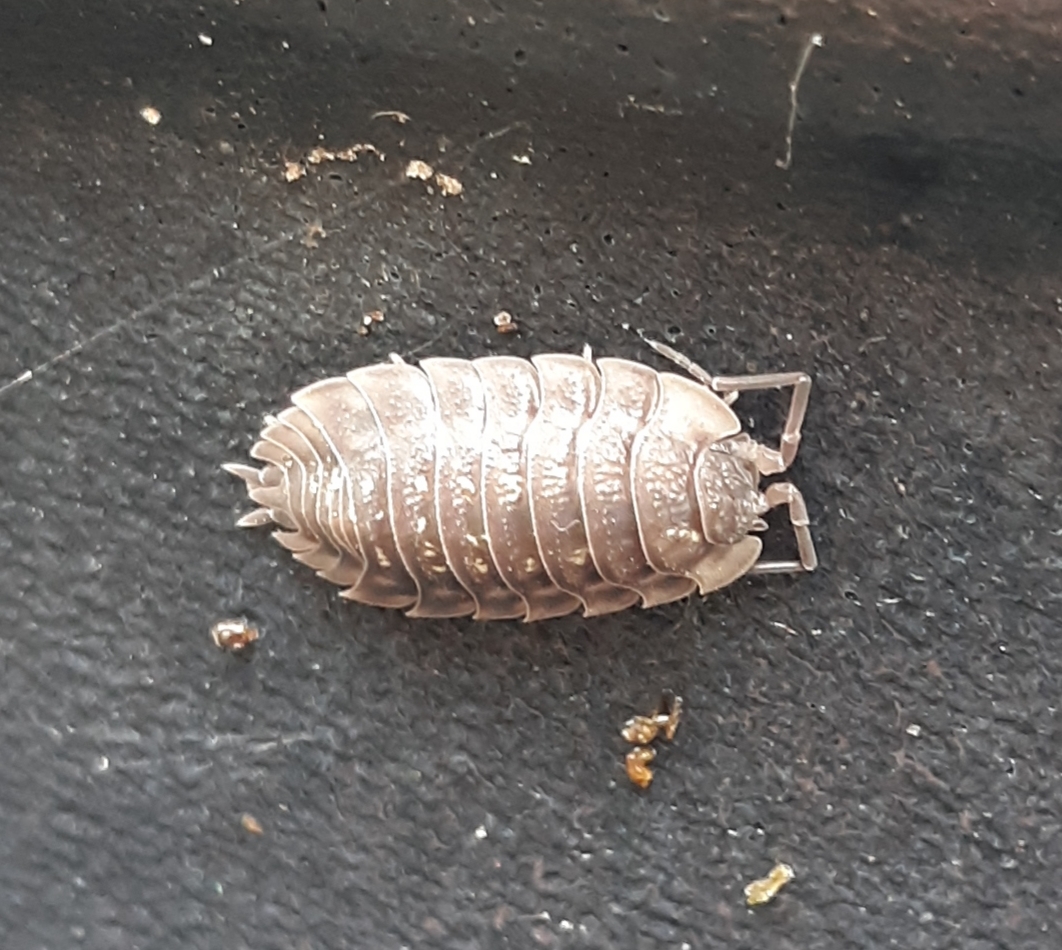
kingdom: Animalia
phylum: Arthropoda
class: Malacostraca
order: Isopoda
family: Oniscidae
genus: Oniscus
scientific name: Oniscus asellus
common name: Common shiny woodlouse
